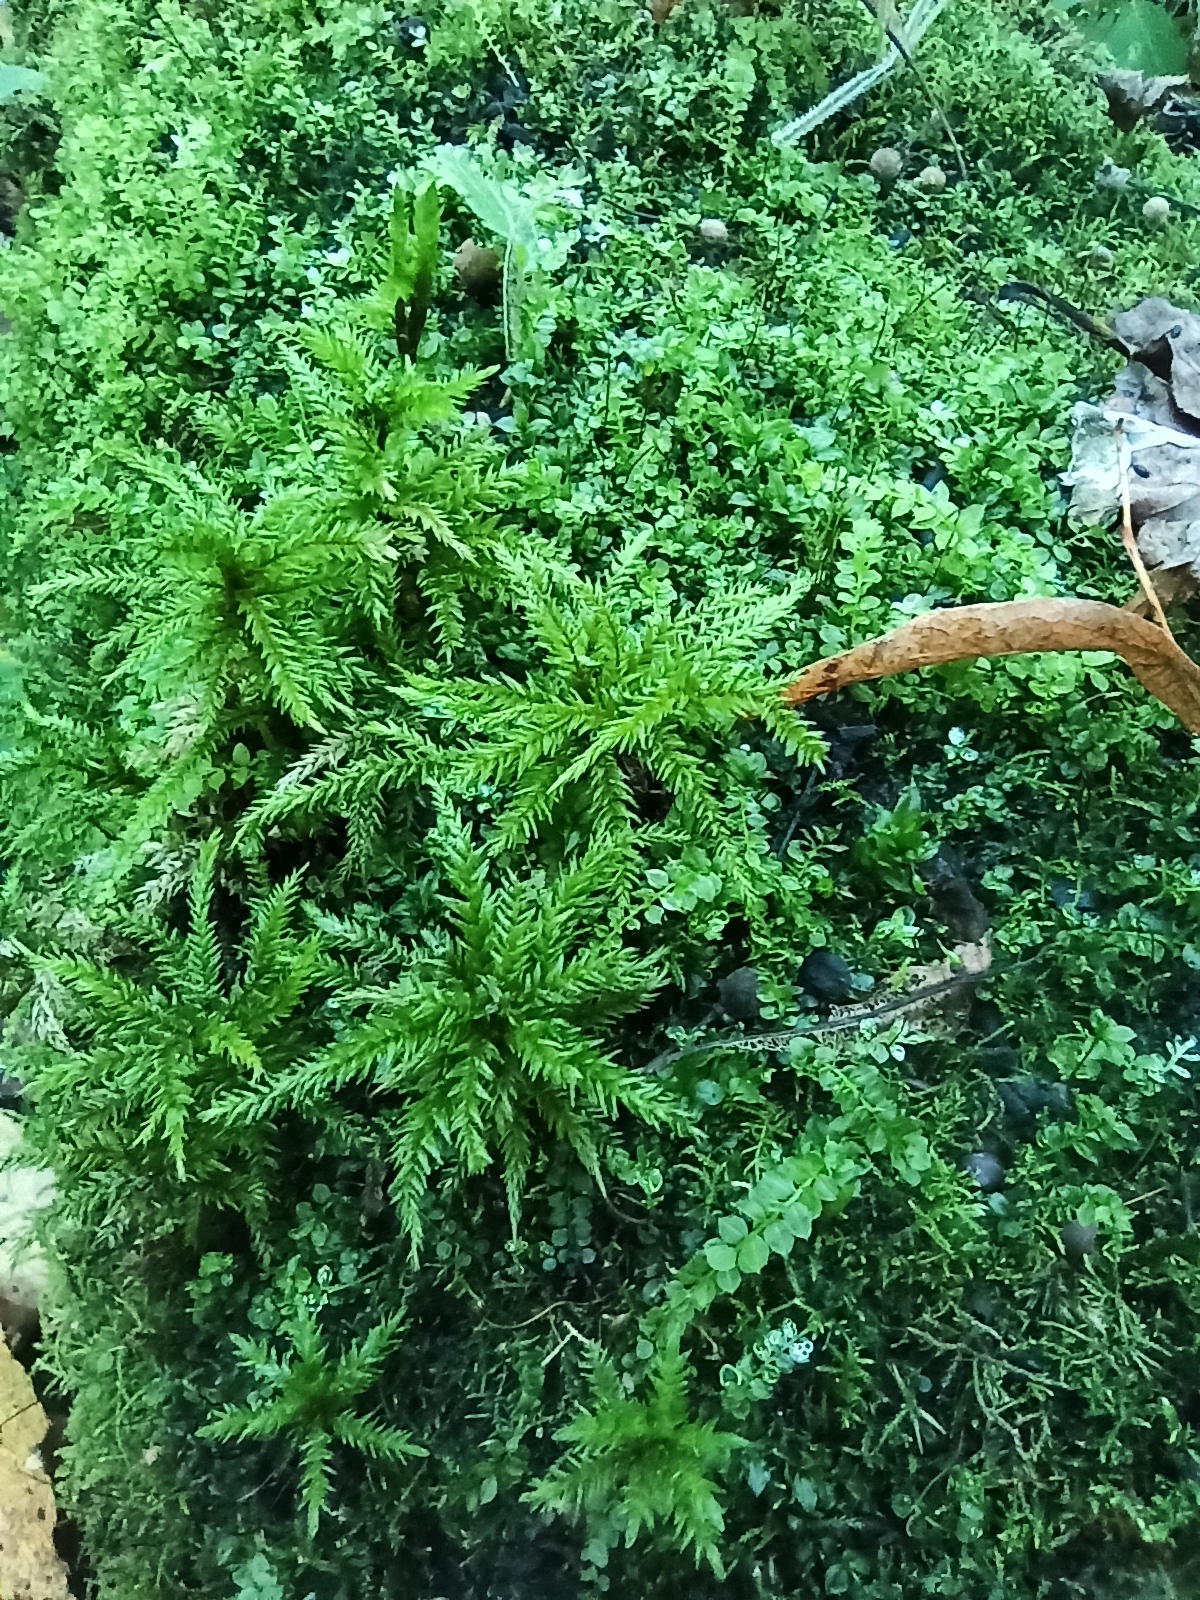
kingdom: Plantae
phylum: Bryophyta
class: Bryopsida
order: Hypnales
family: Climaciaceae
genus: Climacium
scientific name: Climacium dendroides
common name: Northern tree moss
